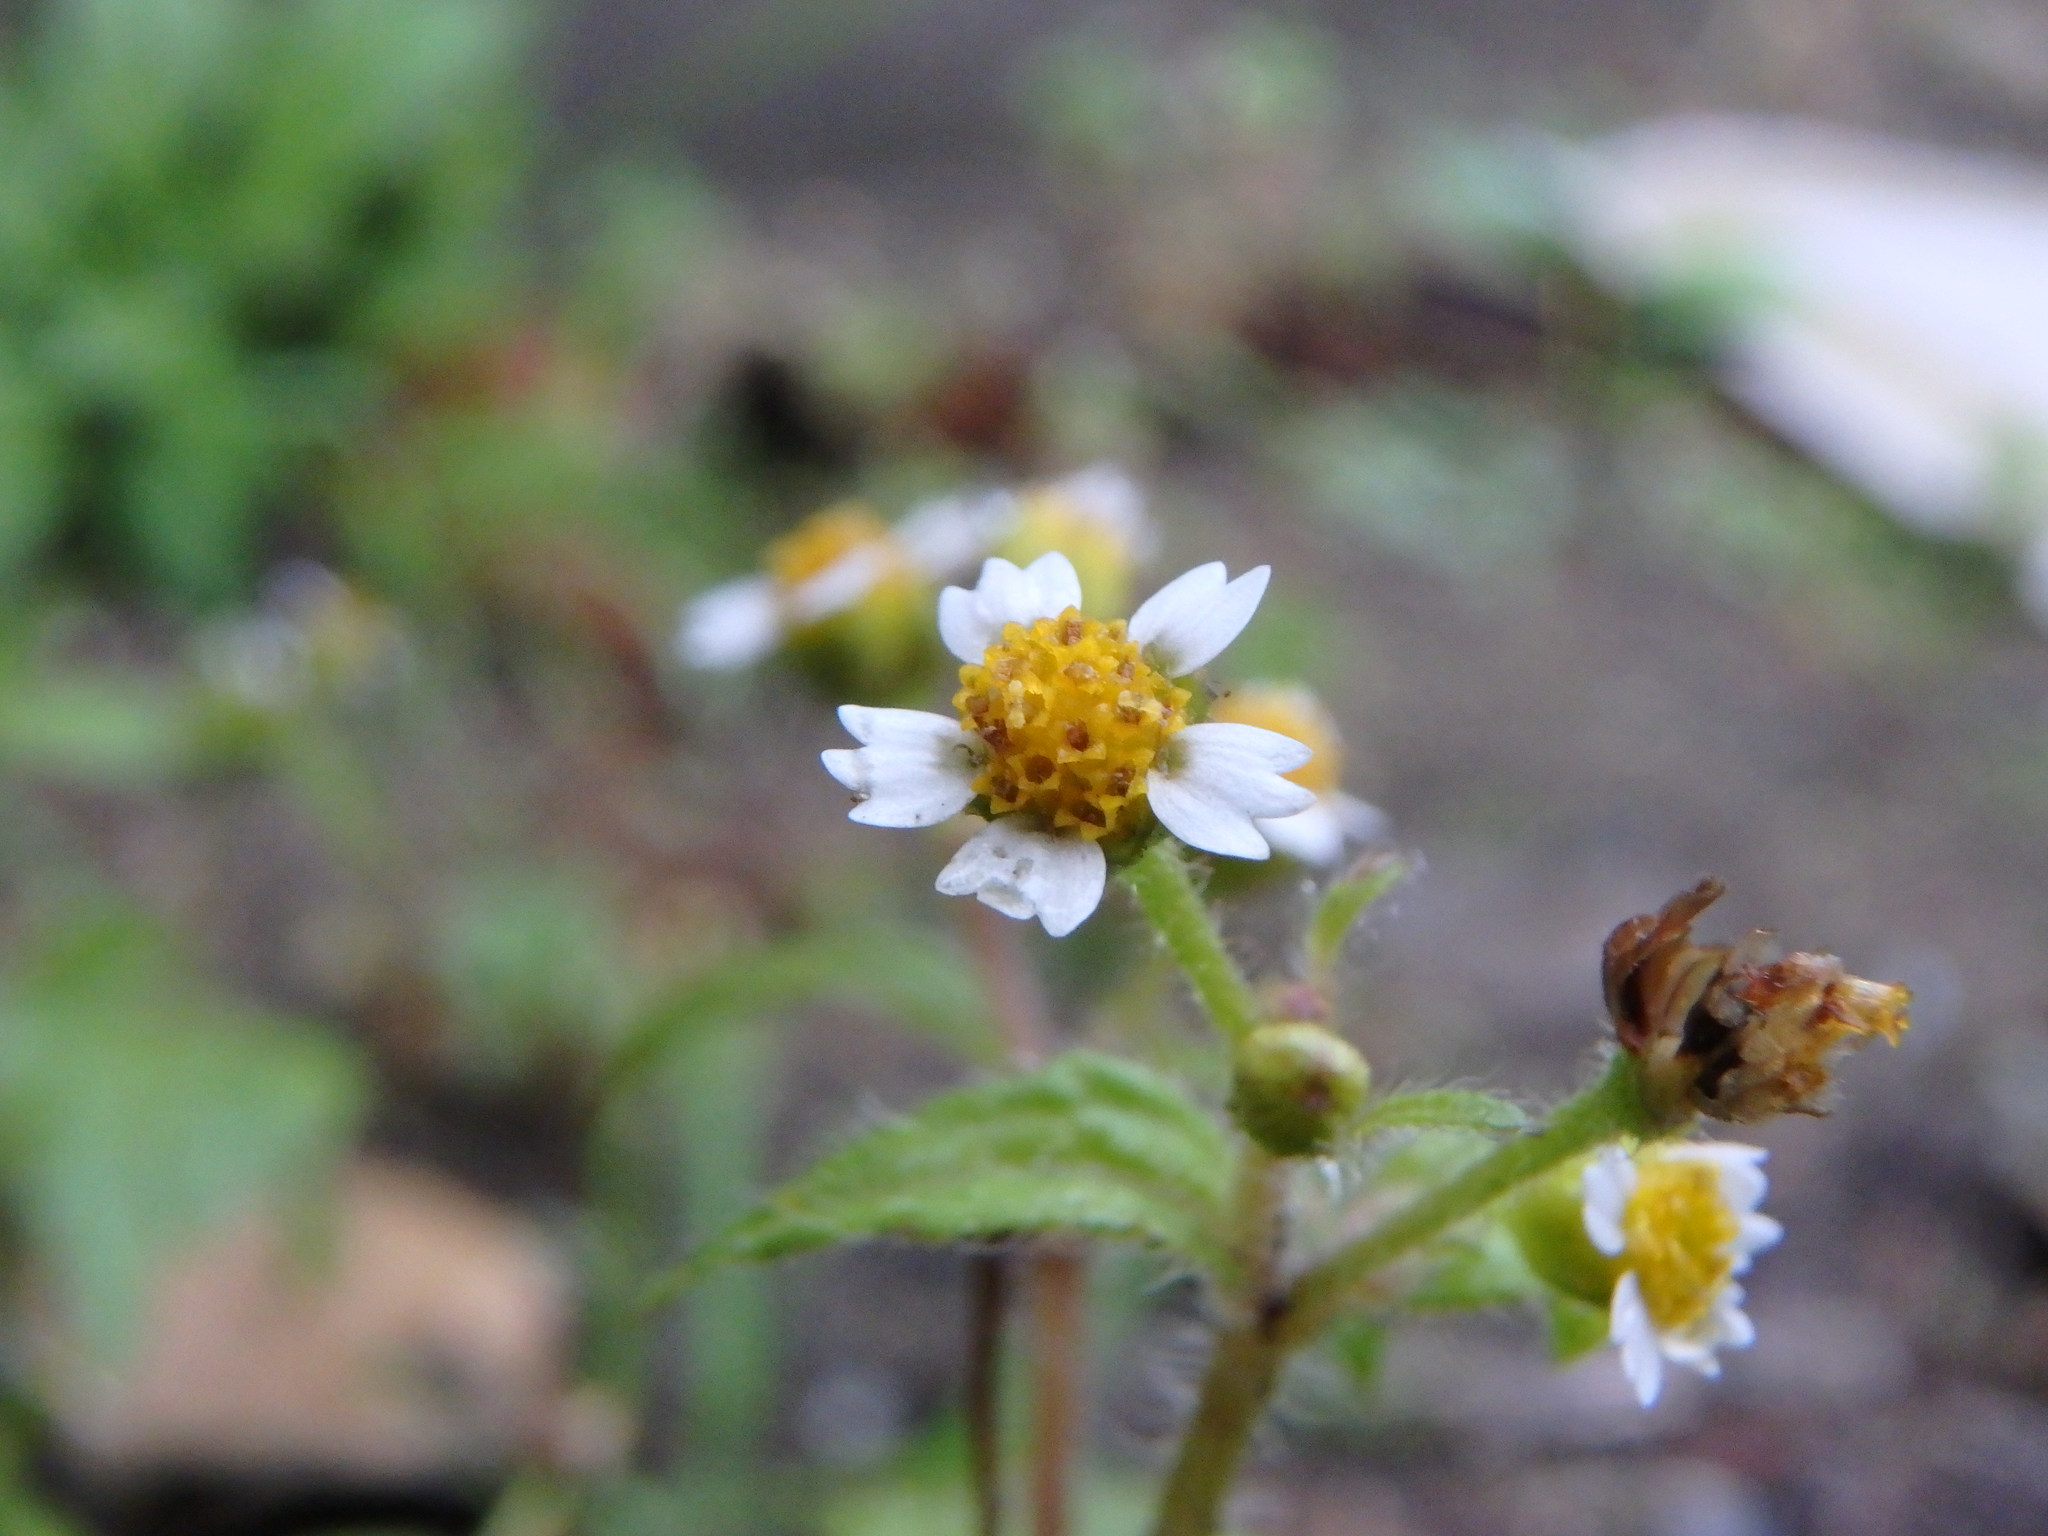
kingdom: Plantae
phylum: Tracheophyta
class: Magnoliopsida
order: Asterales
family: Asteraceae
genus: Galinsoga
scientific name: Galinsoga quadriradiata
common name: Shaggy soldier
